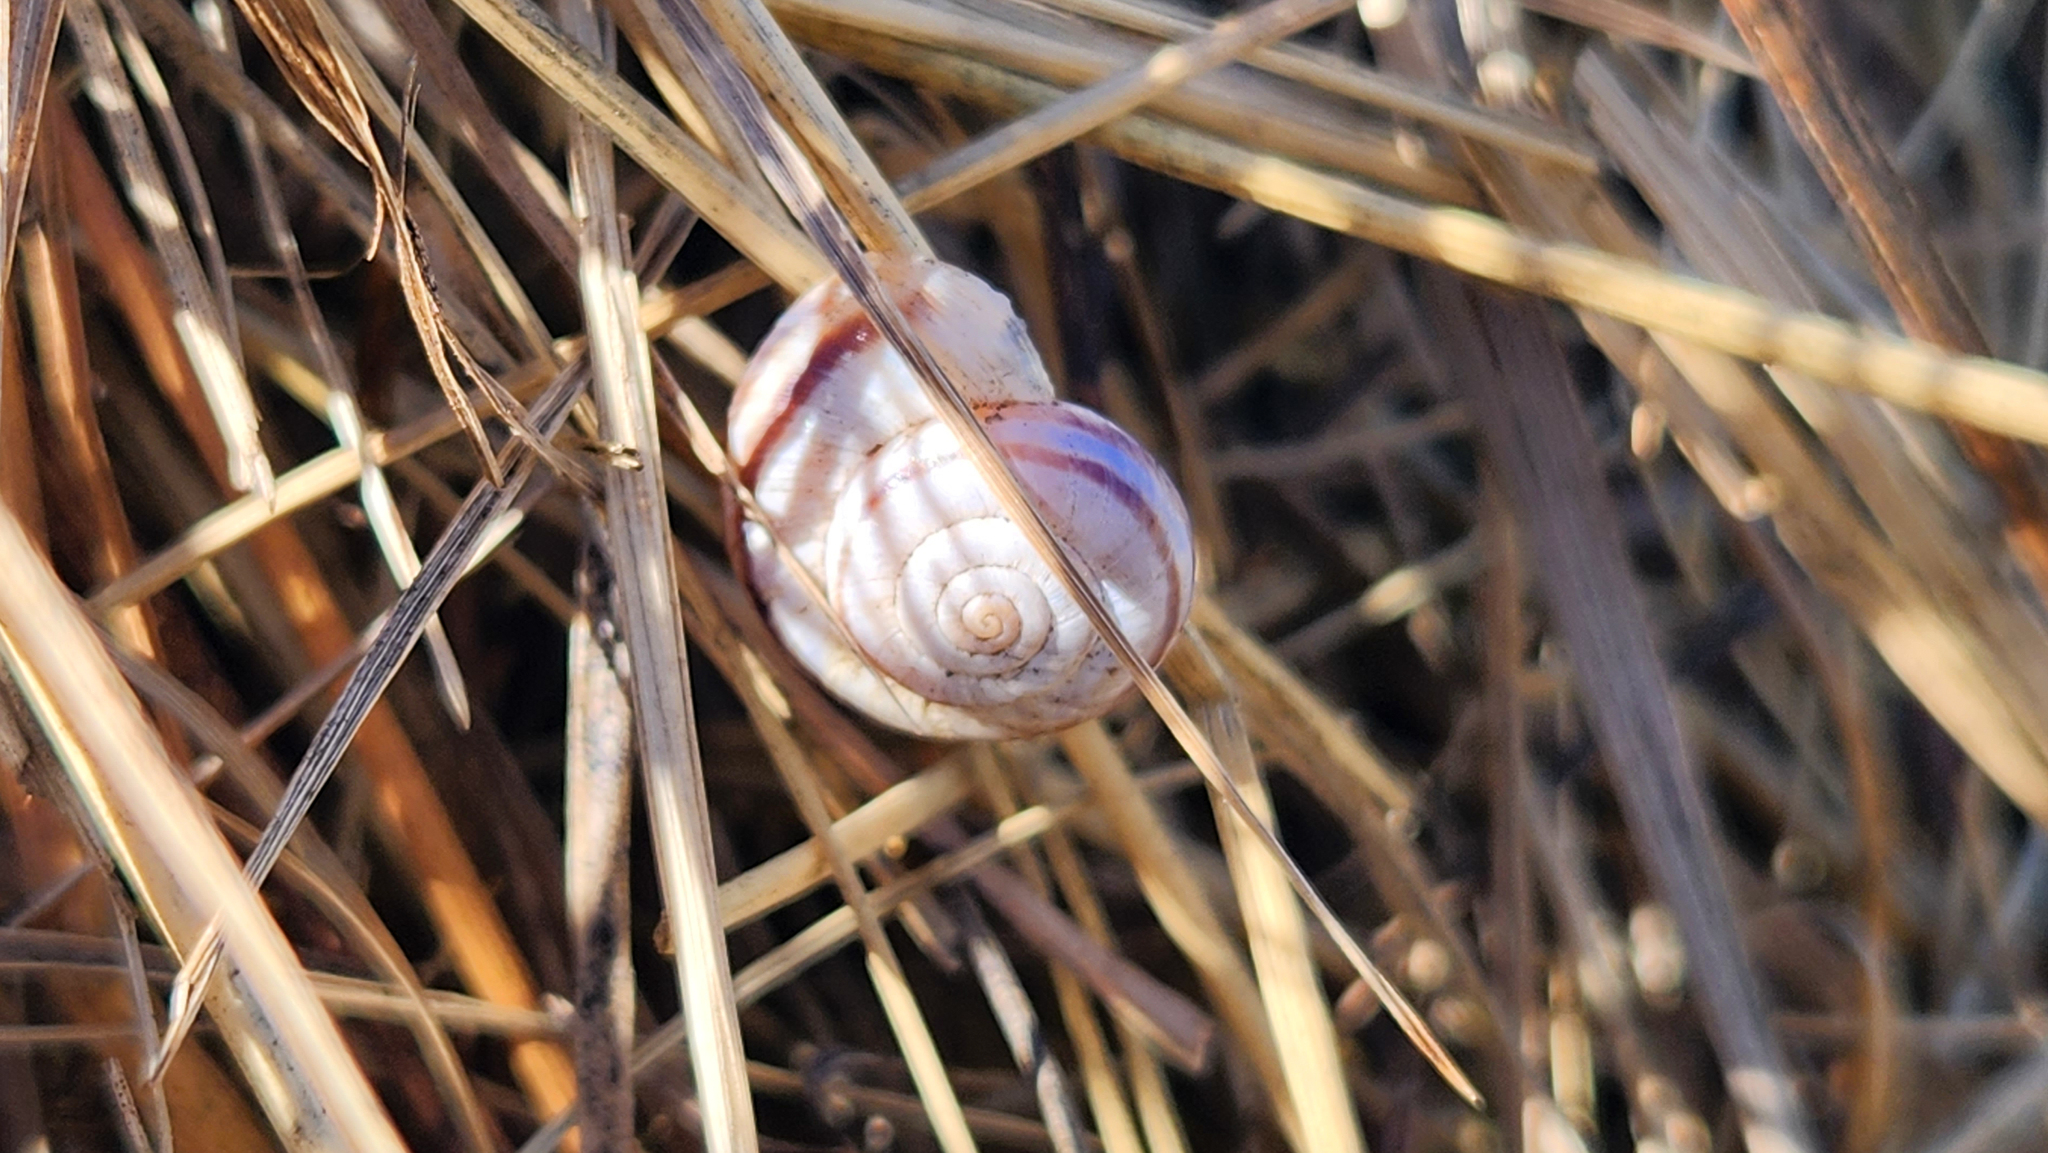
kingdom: Animalia
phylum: Mollusca
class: Gastropoda
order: Stylommatophora
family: Geomitridae
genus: Xerolenta
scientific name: Xerolenta obvia
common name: White heath snail
